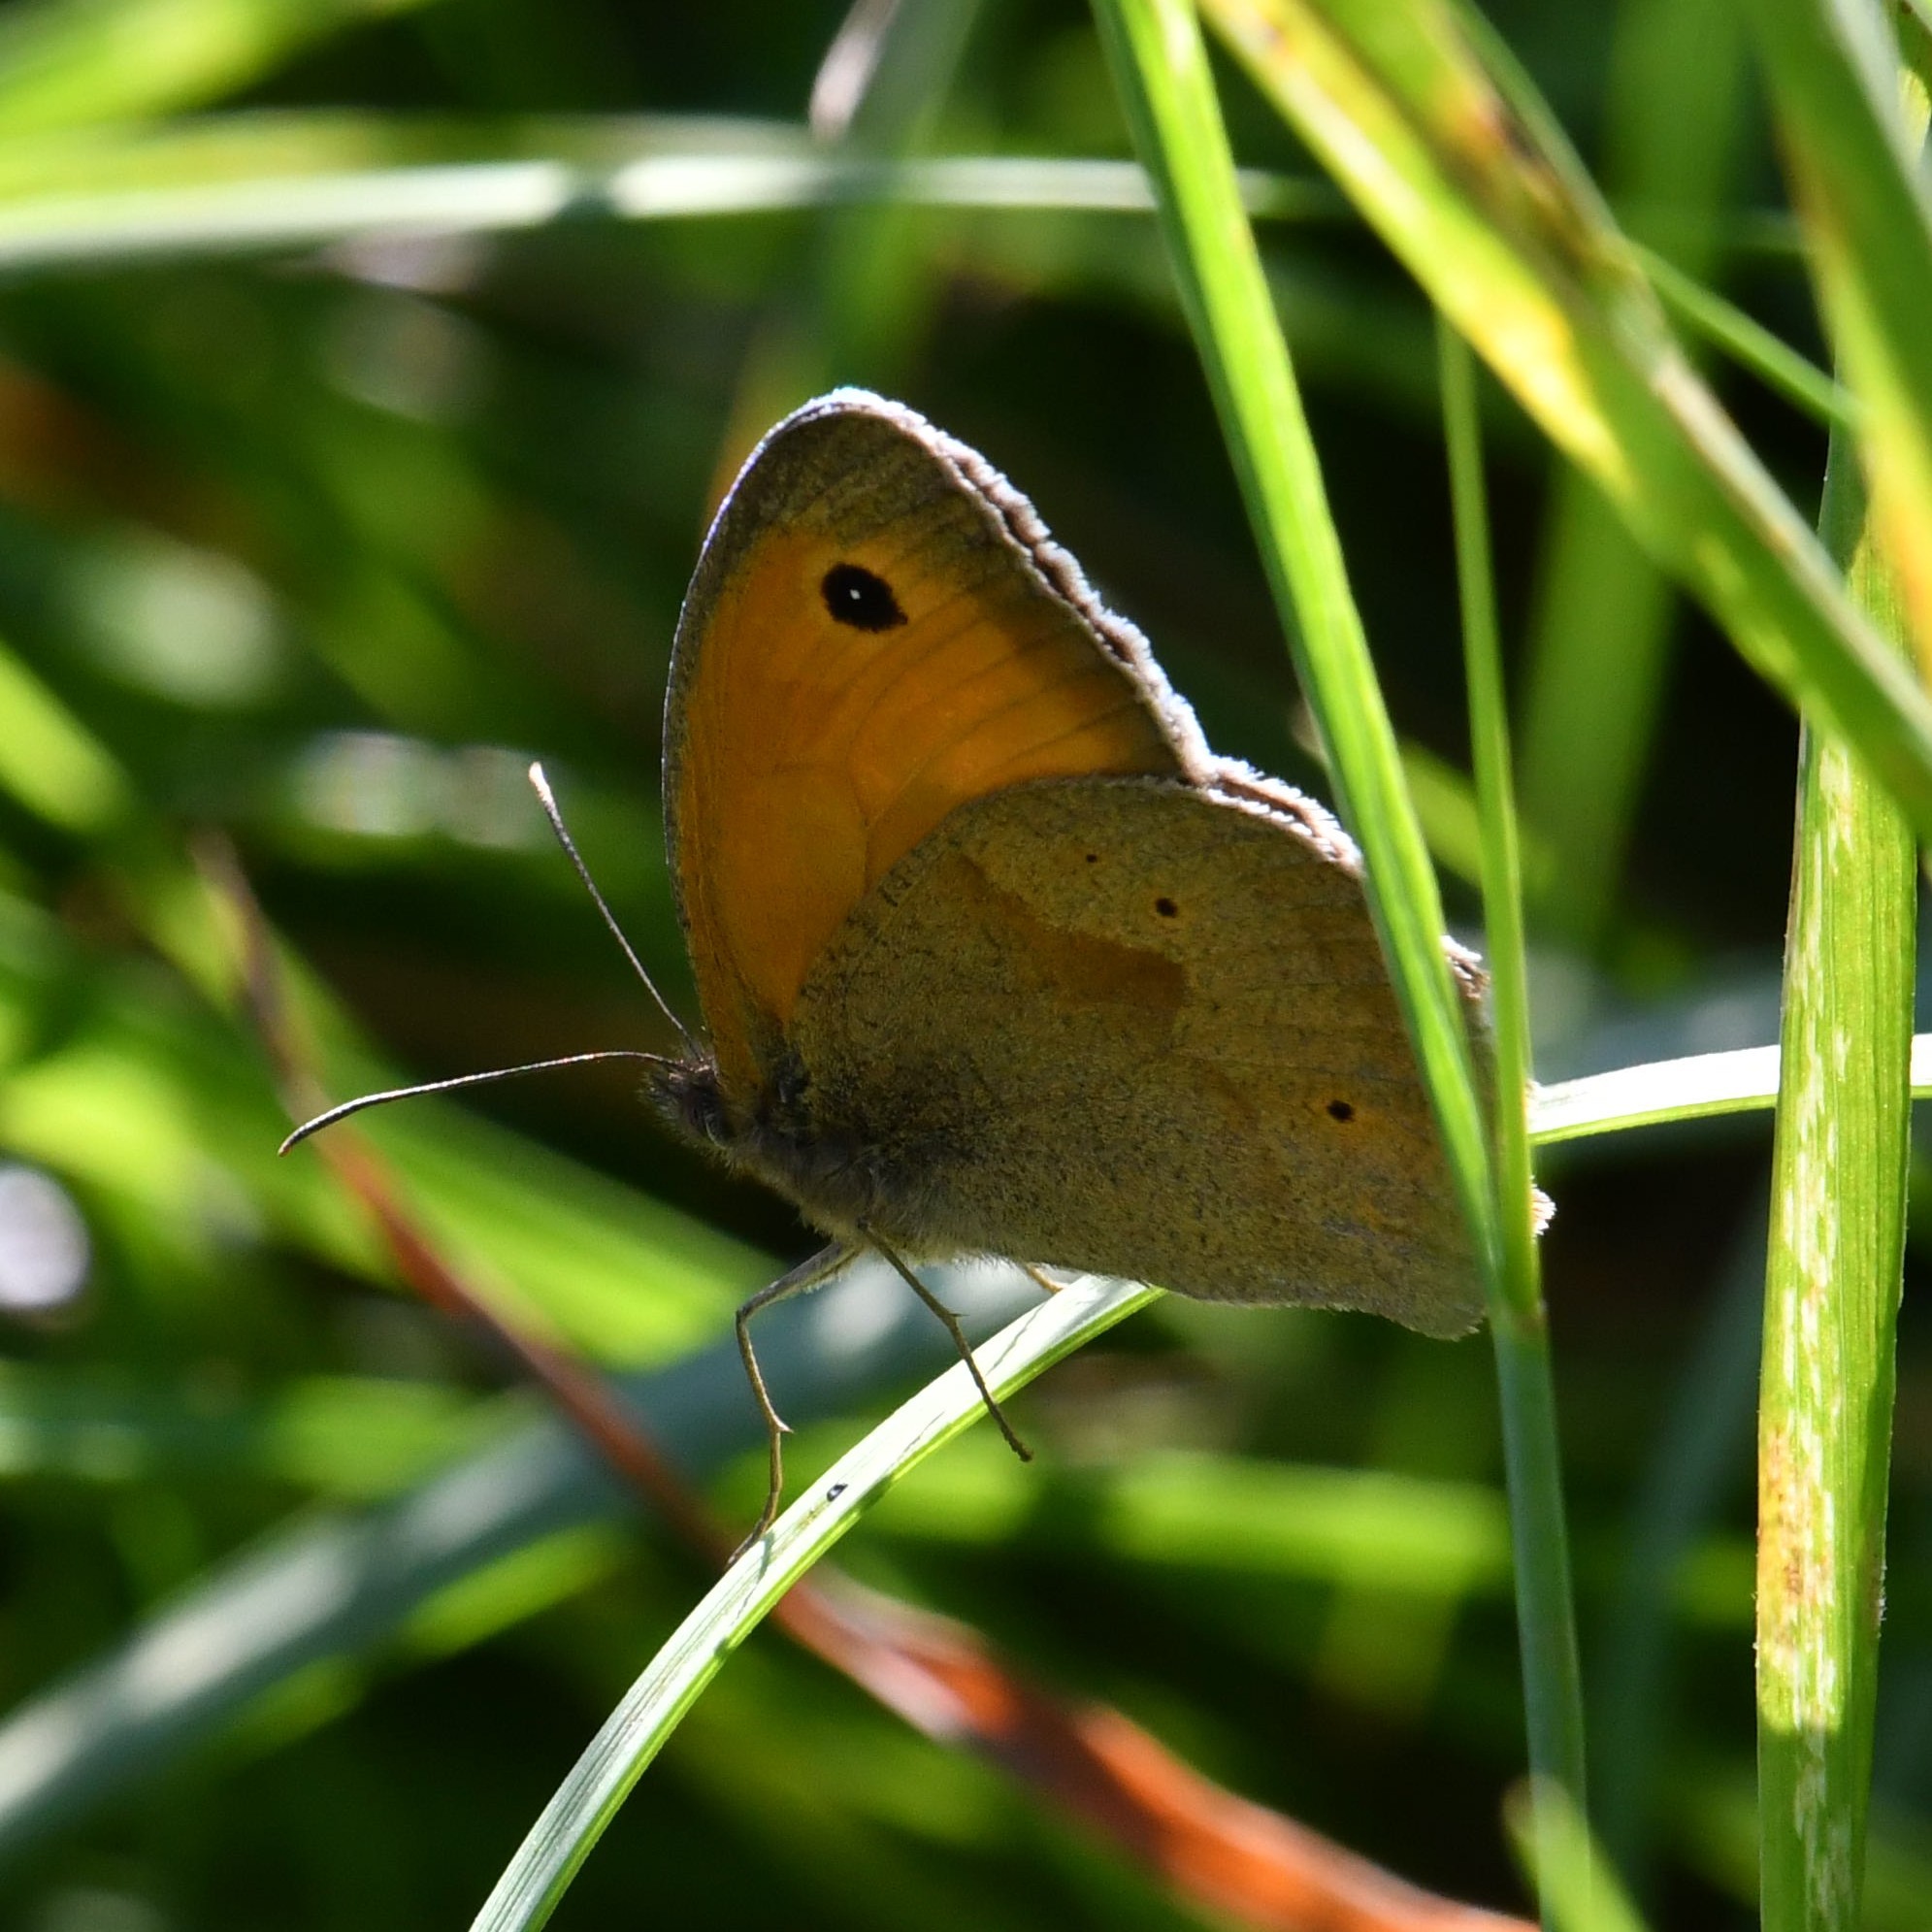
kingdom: Animalia
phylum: Arthropoda
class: Insecta
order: Lepidoptera
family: Nymphalidae
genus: Maniola
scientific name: Maniola jurtina
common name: Meadow brown
